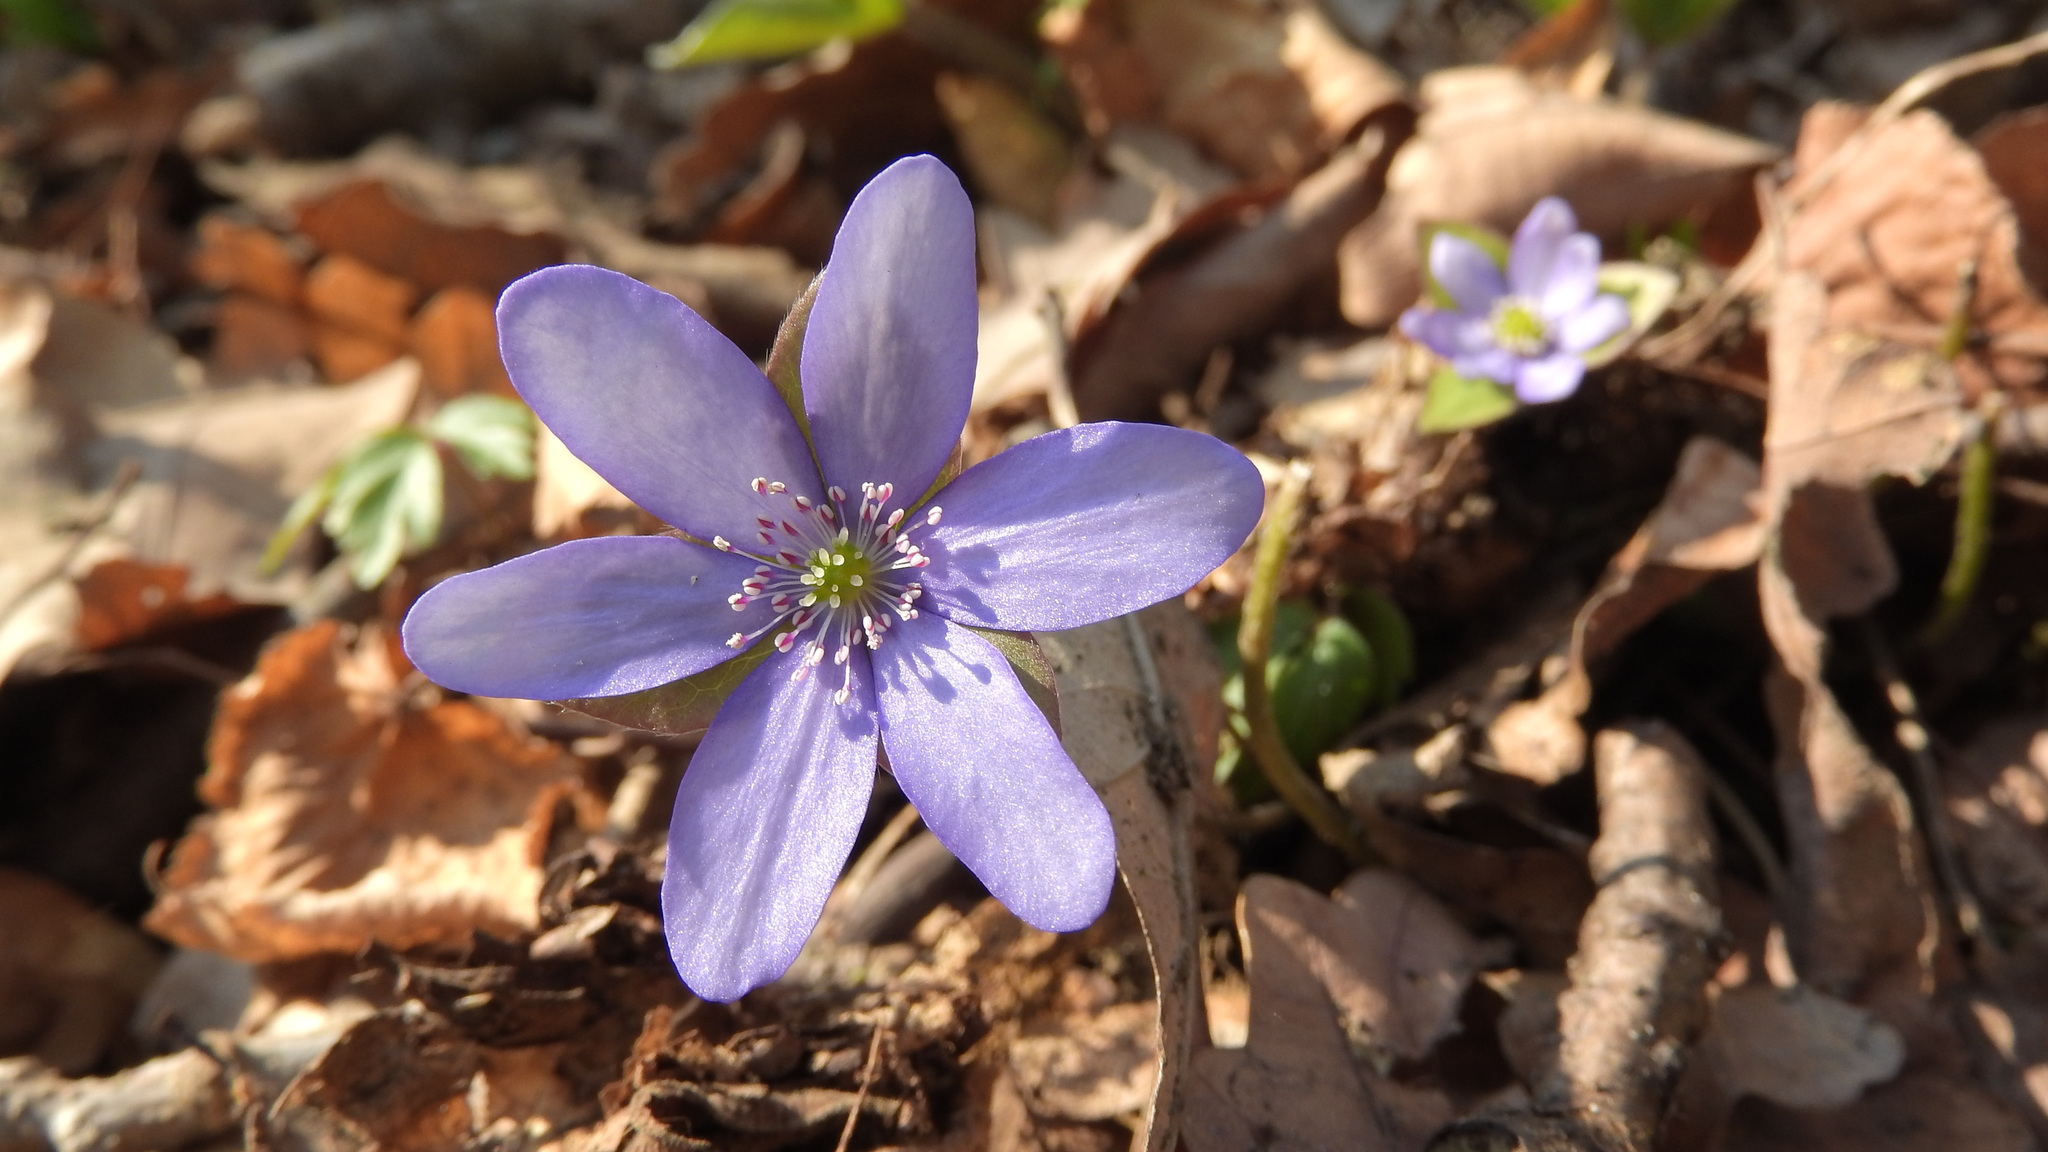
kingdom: Plantae
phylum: Tracheophyta
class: Magnoliopsida
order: Ranunculales
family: Ranunculaceae
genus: Hepatica
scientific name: Hepatica nobilis
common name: Liverleaf
